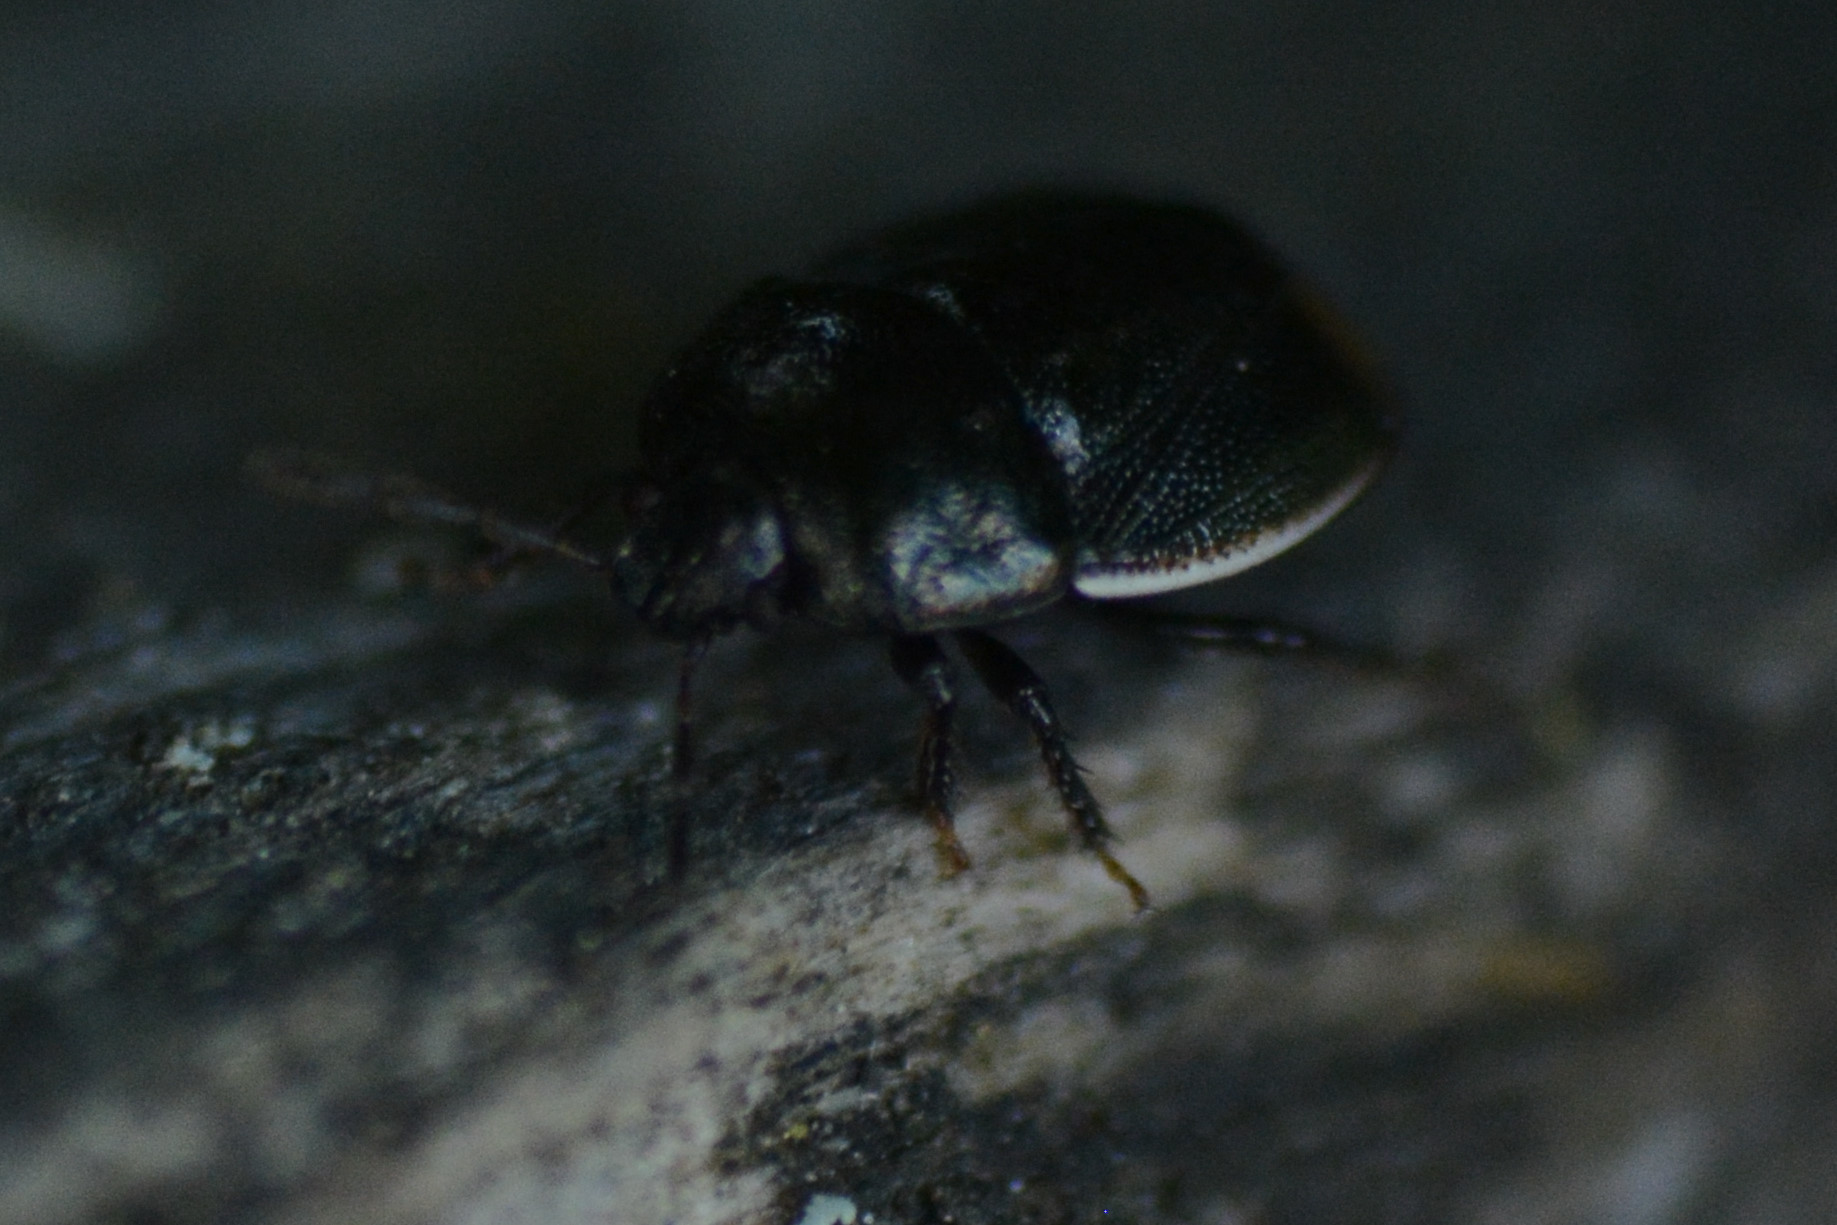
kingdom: Animalia
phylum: Arthropoda
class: Insecta
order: Hemiptera
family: Cydnidae
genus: Legnotus
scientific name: Legnotus limbosus
